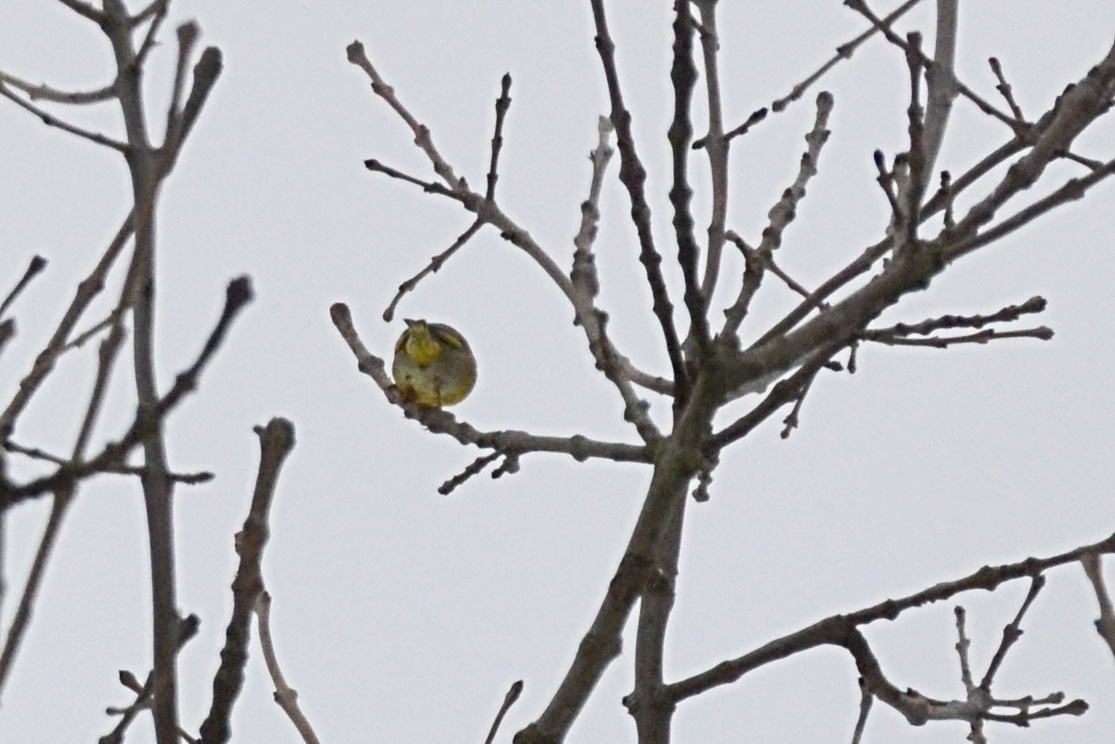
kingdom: Plantae
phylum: Tracheophyta
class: Liliopsida
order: Poales
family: Poaceae
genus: Chloris
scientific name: Chloris chloris
